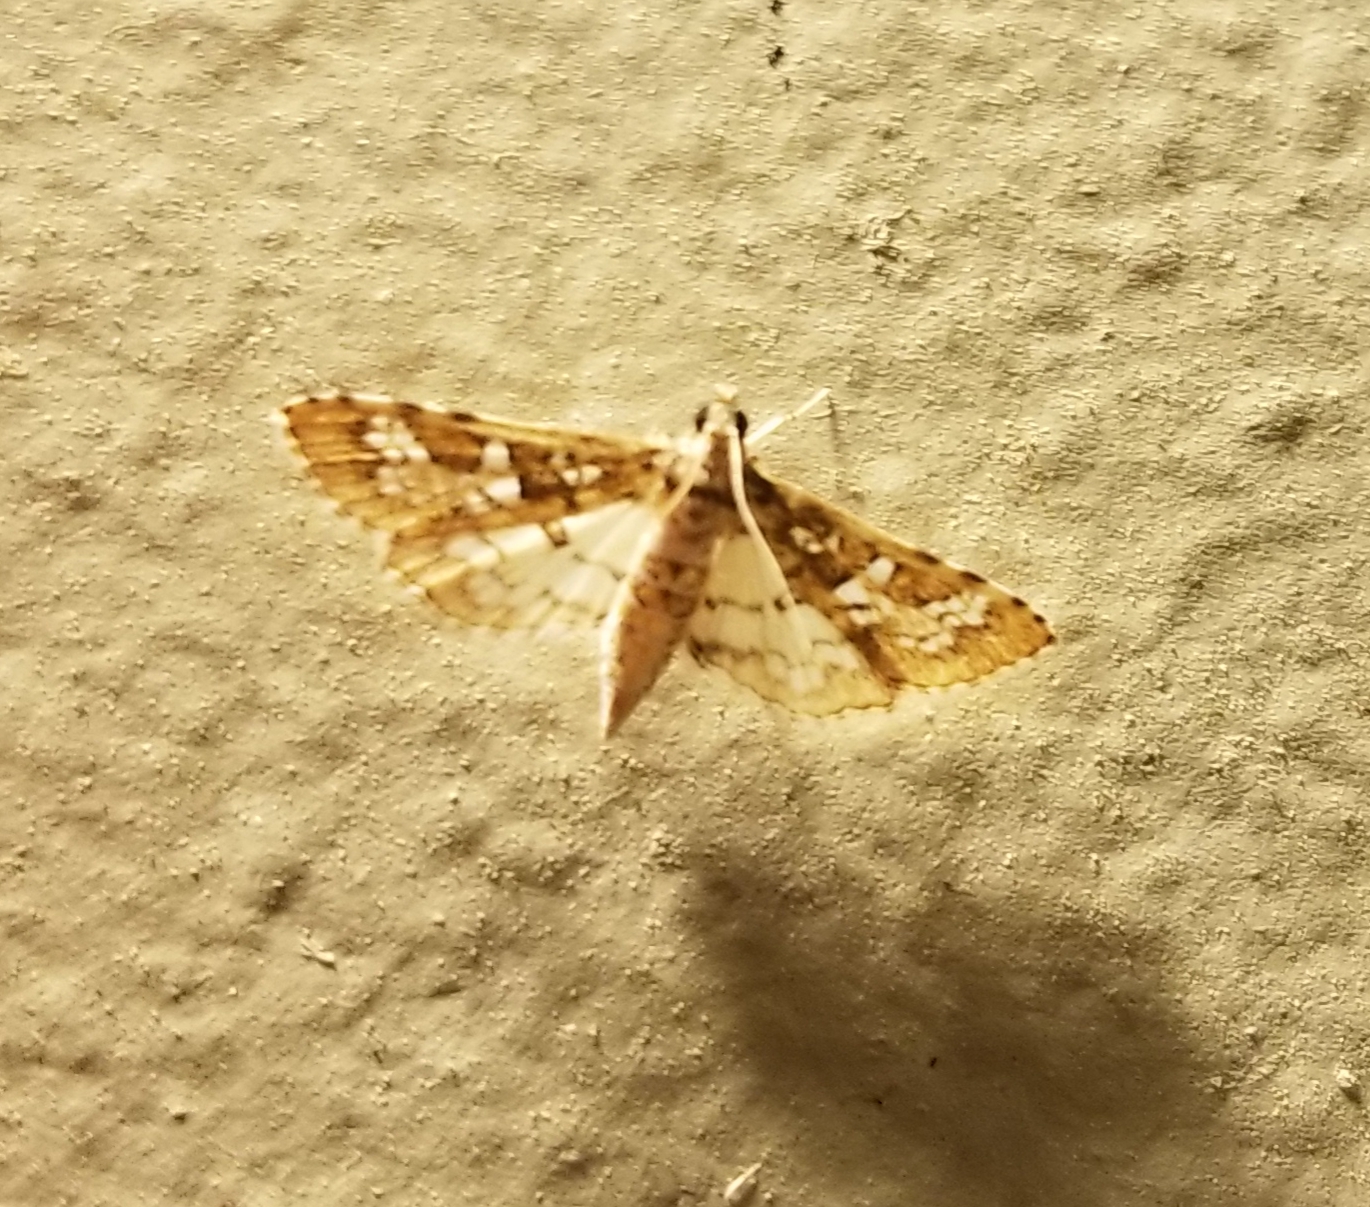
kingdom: Animalia
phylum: Arthropoda
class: Insecta
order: Lepidoptera
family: Crambidae
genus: Samea
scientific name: Samea multiplicalis
